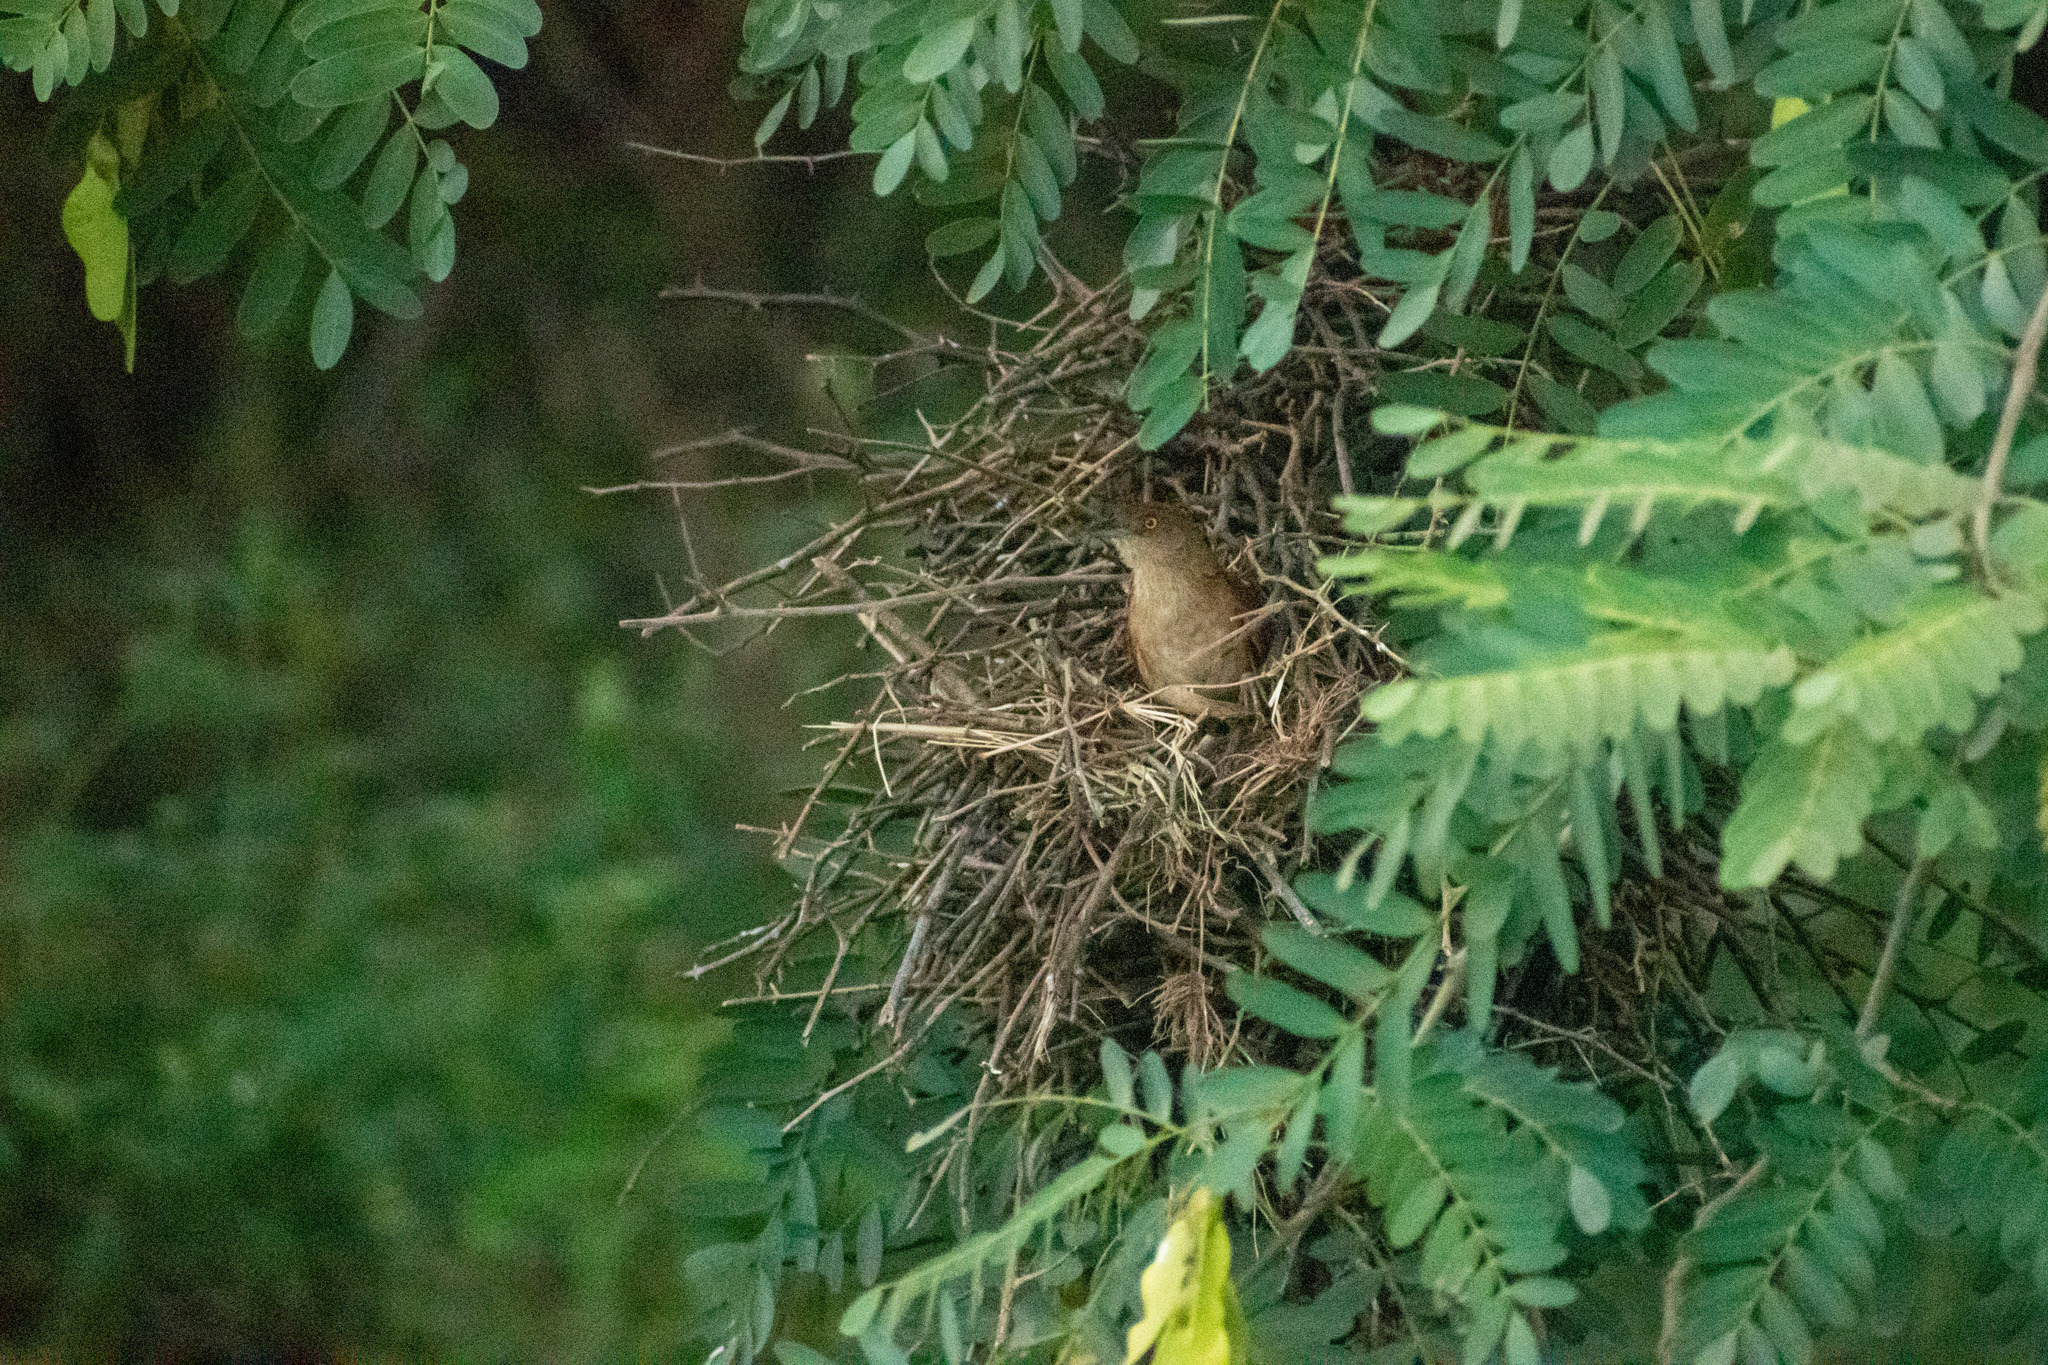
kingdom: Animalia
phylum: Chordata
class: Aves
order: Passeriformes
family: Furnariidae
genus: Phacellodomus
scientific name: Phacellodomus ruber
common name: Greater thornbird
